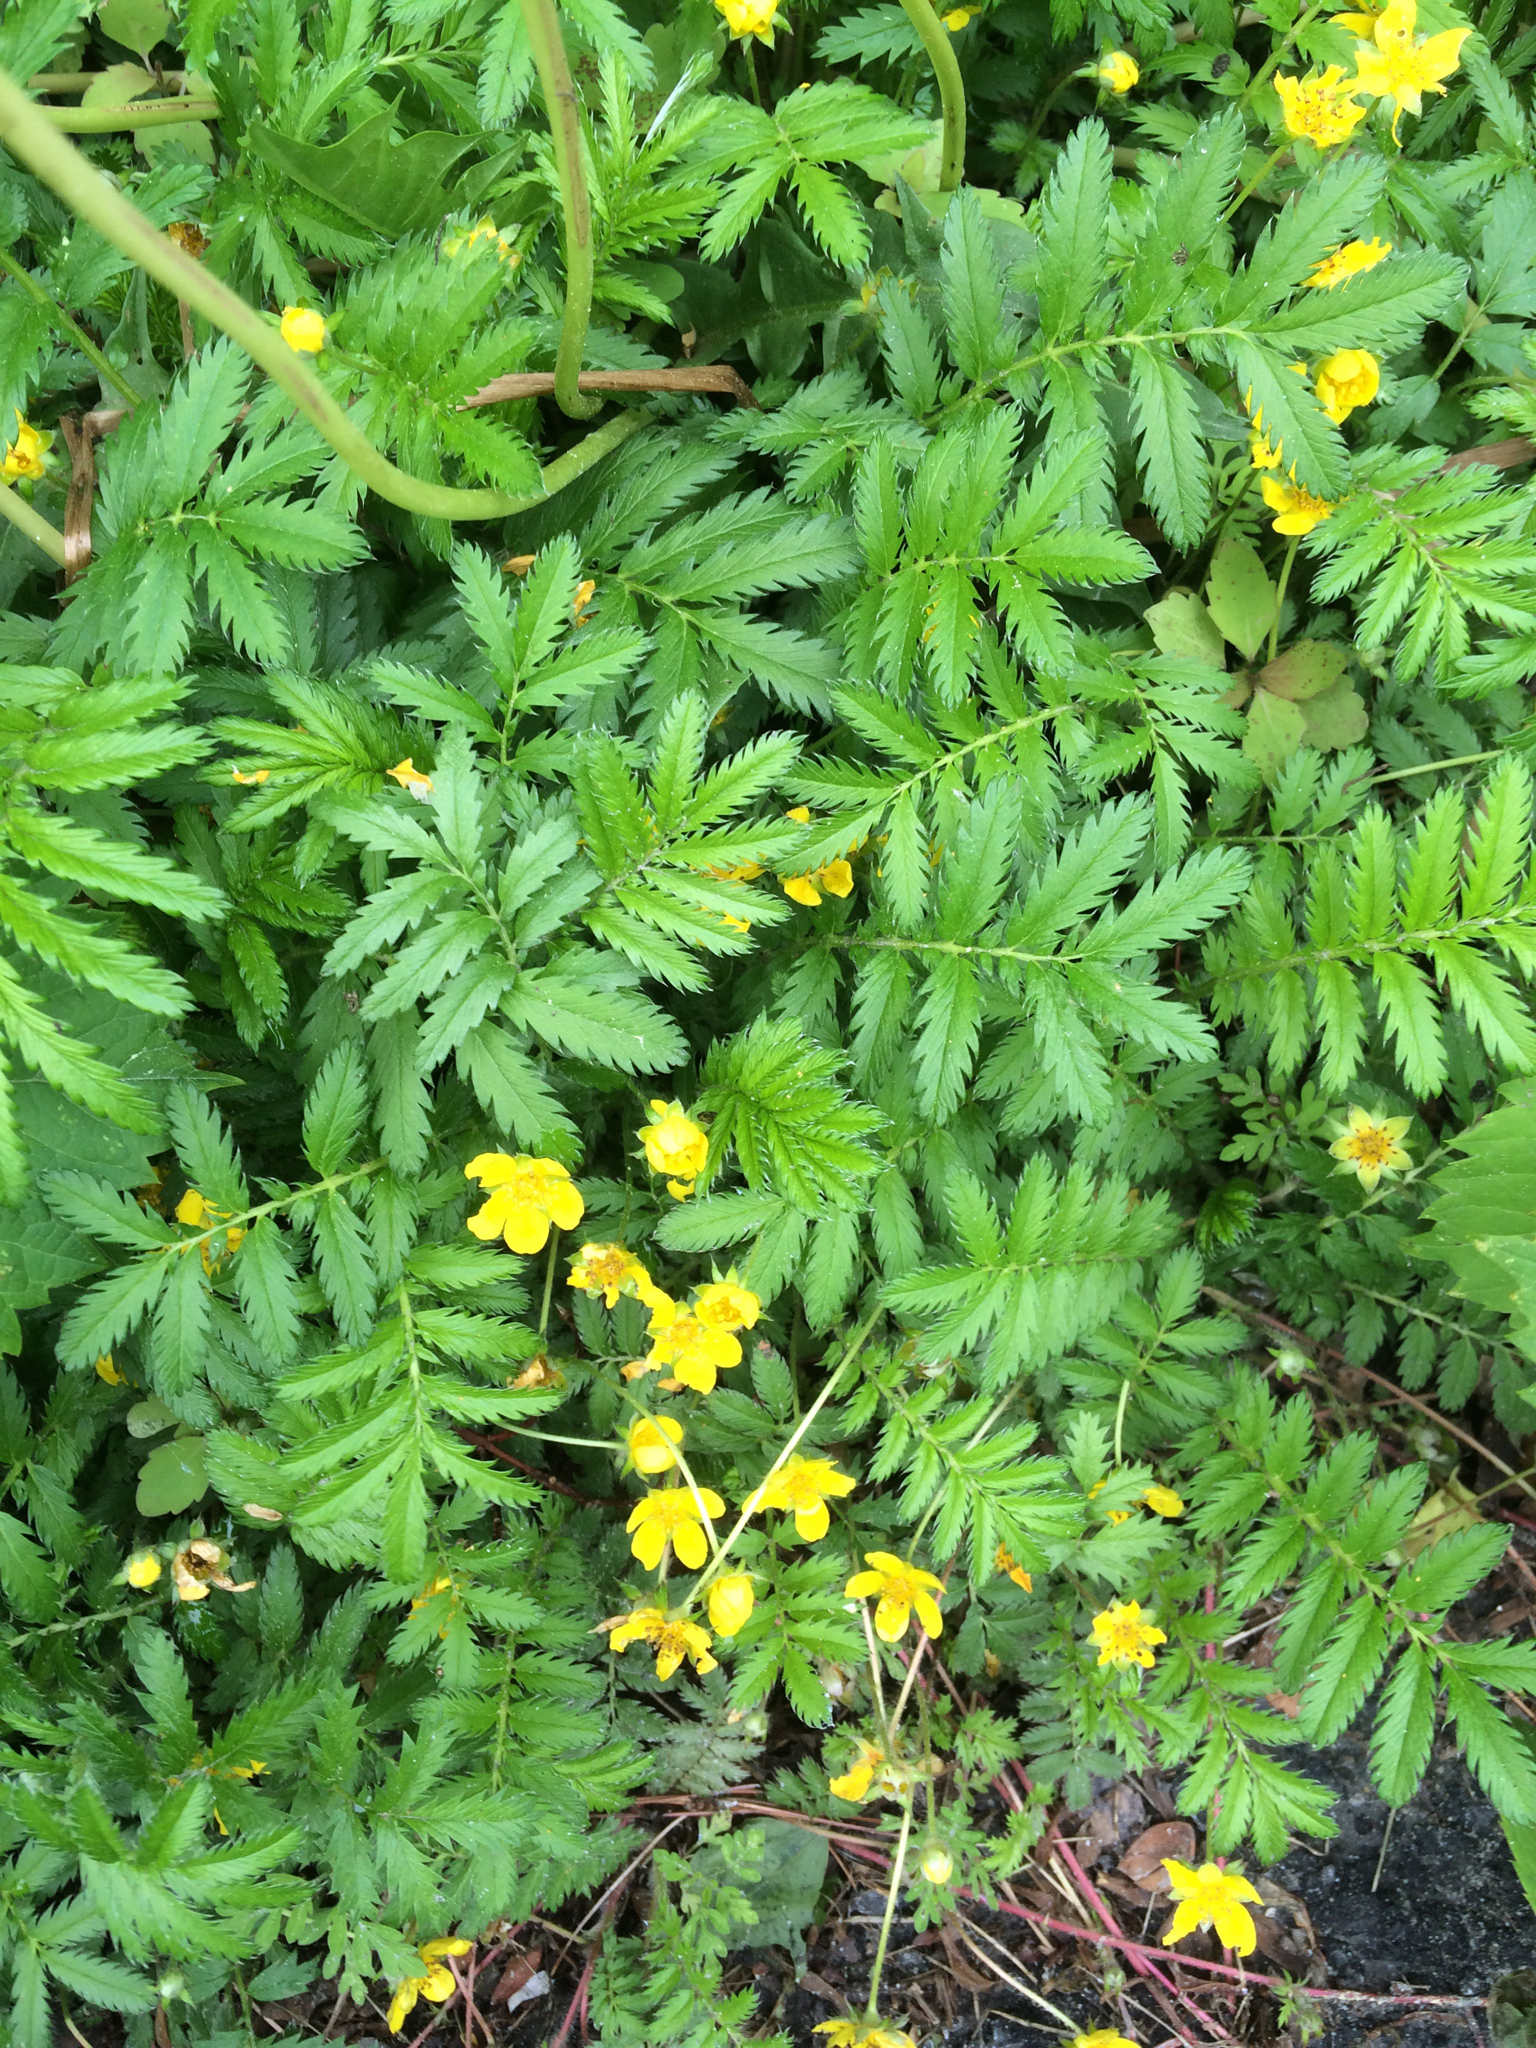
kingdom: Plantae
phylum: Tracheophyta
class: Magnoliopsida
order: Rosales
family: Rosaceae
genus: Argentina
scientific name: Argentina anserina
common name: Common silverweed
